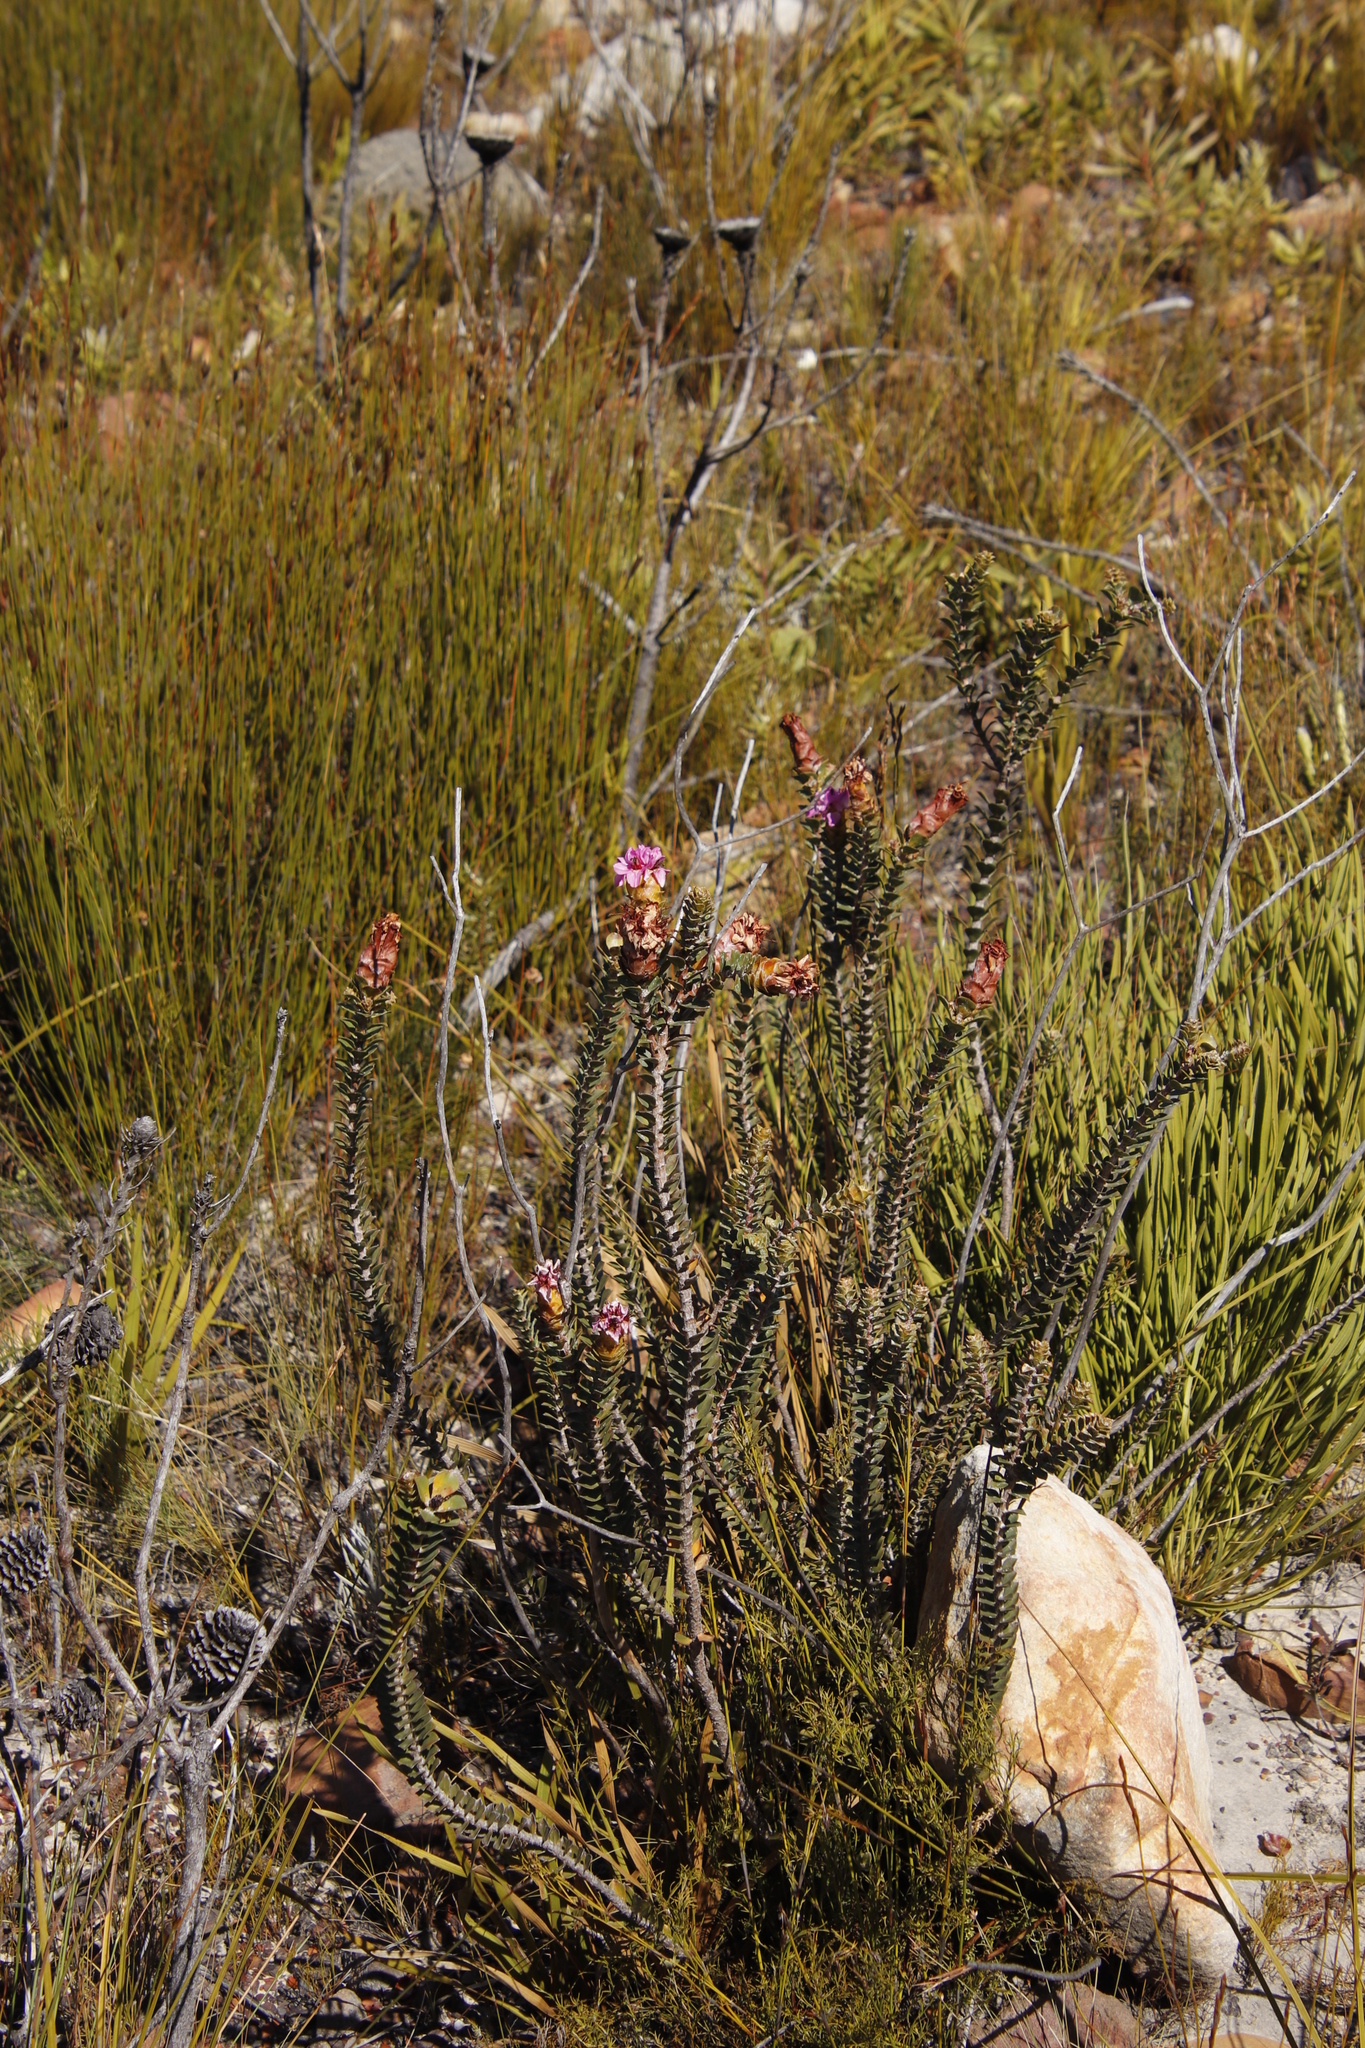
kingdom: Plantae
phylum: Tracheophyta
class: Magnoliopsida
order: Myrtales
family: Penaeaceae
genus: Saltera
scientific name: Saltera sarcocolla
